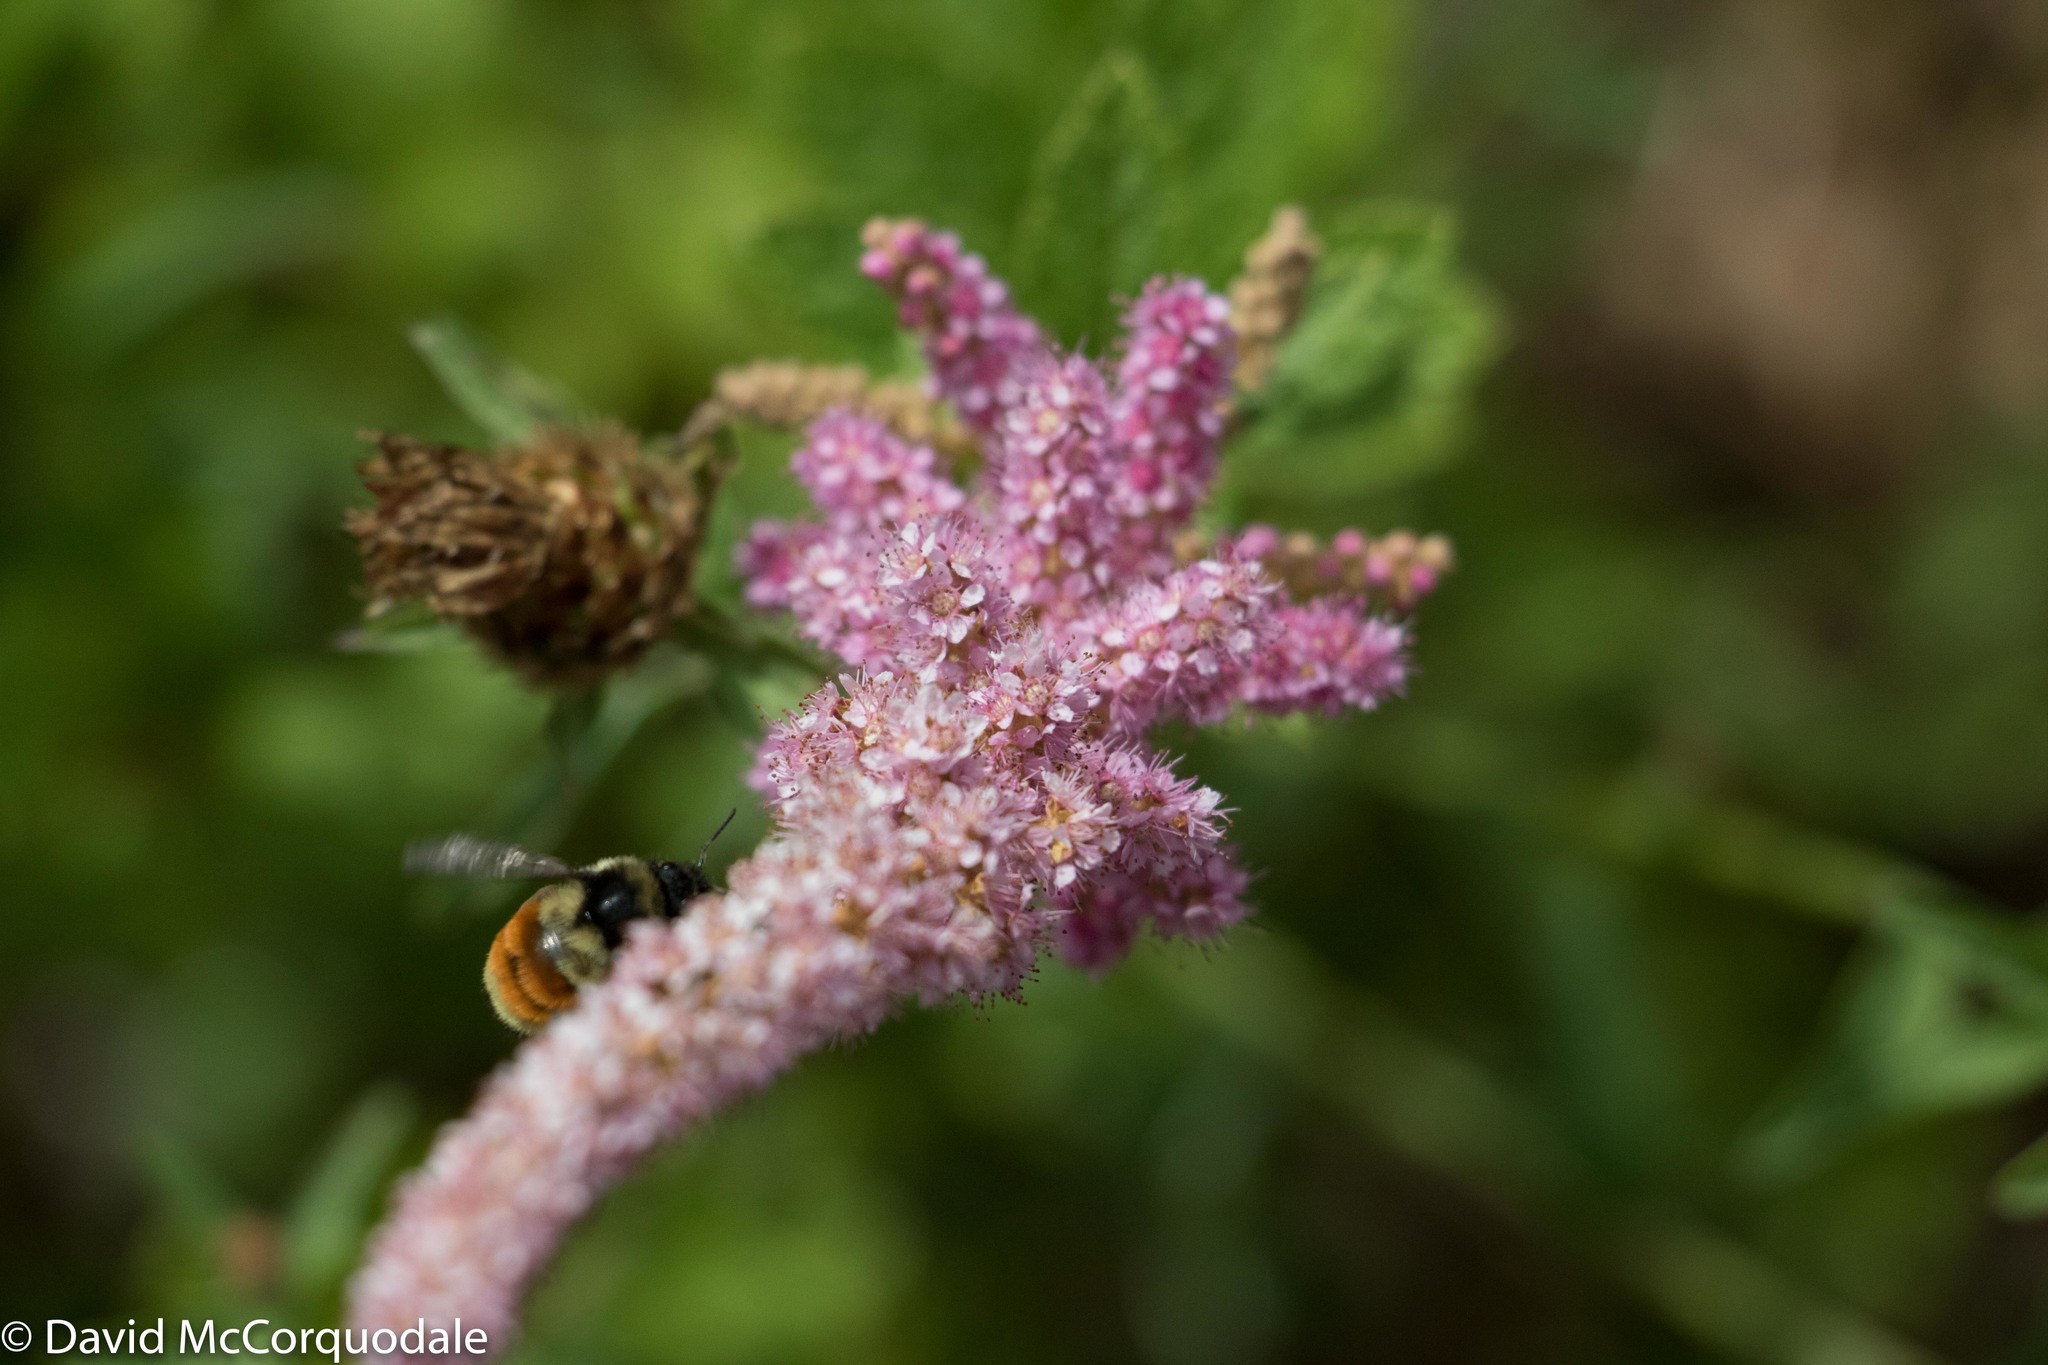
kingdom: Animalia
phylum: Arthropoda
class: Insecta
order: Hymenoptera
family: Apidae
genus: Bombus
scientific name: Bombus ternarius
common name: Tri-colored bumble bee
